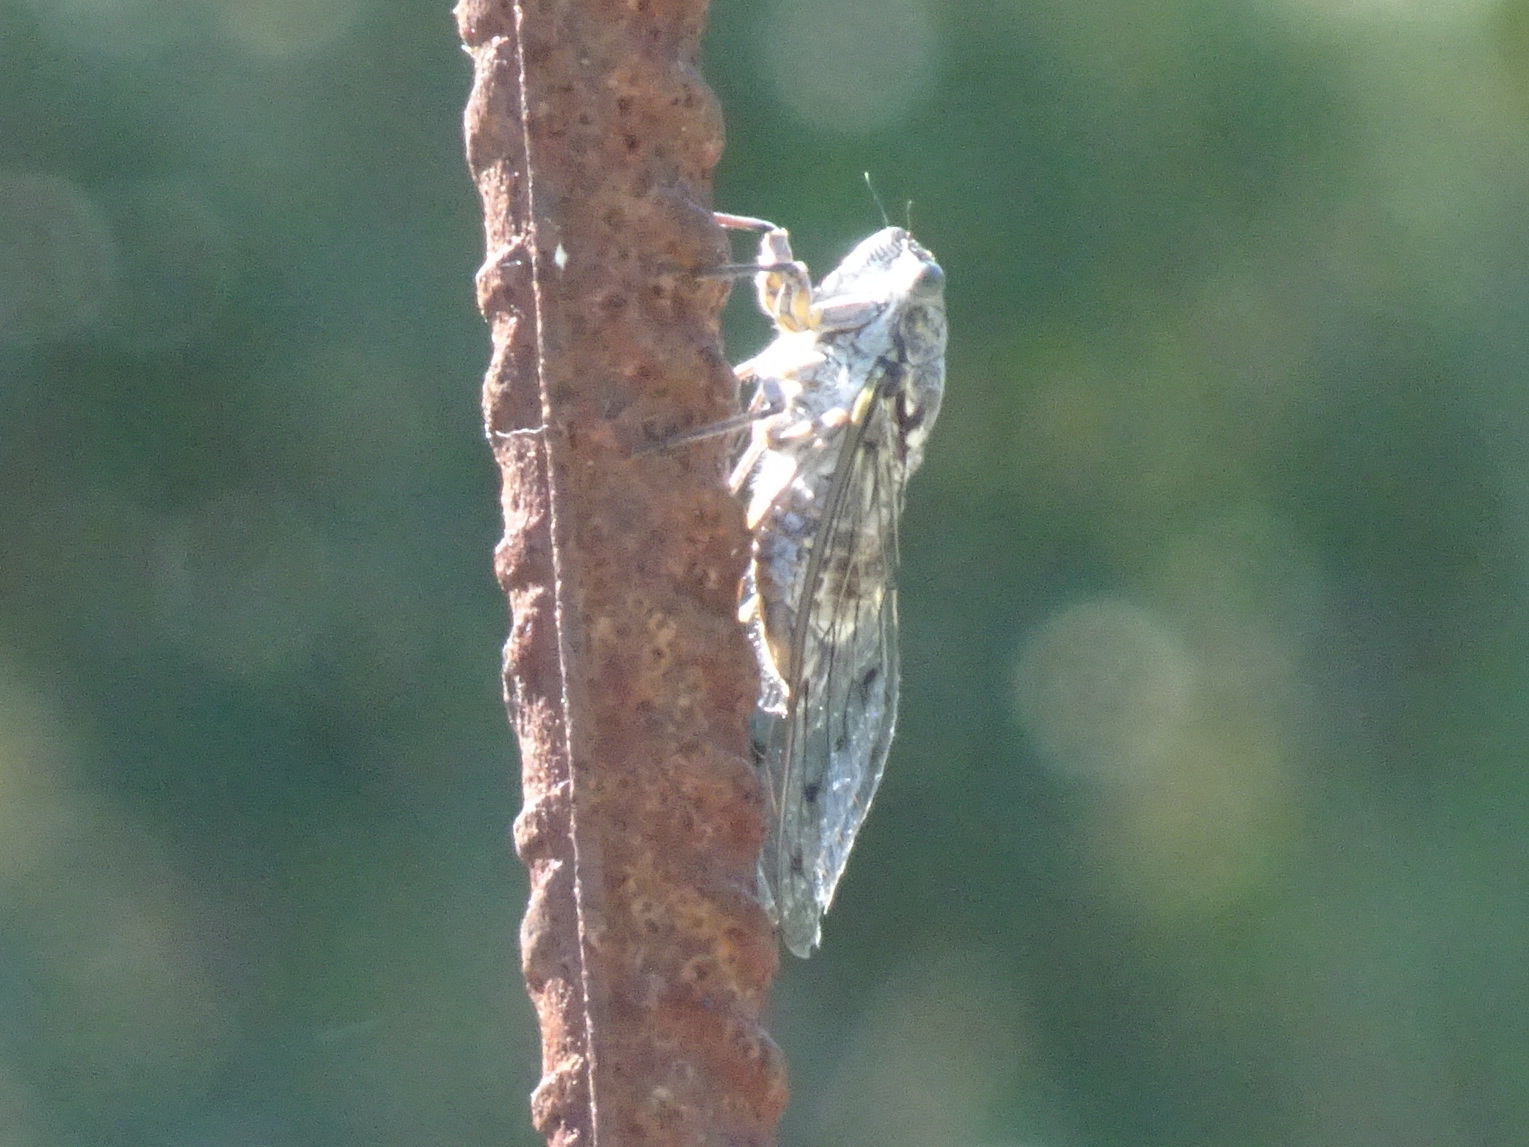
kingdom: Animalia
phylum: Arthropoda
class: Insecta
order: Hemiptera
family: Cicadidae
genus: Cicada
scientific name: Cicada orni
